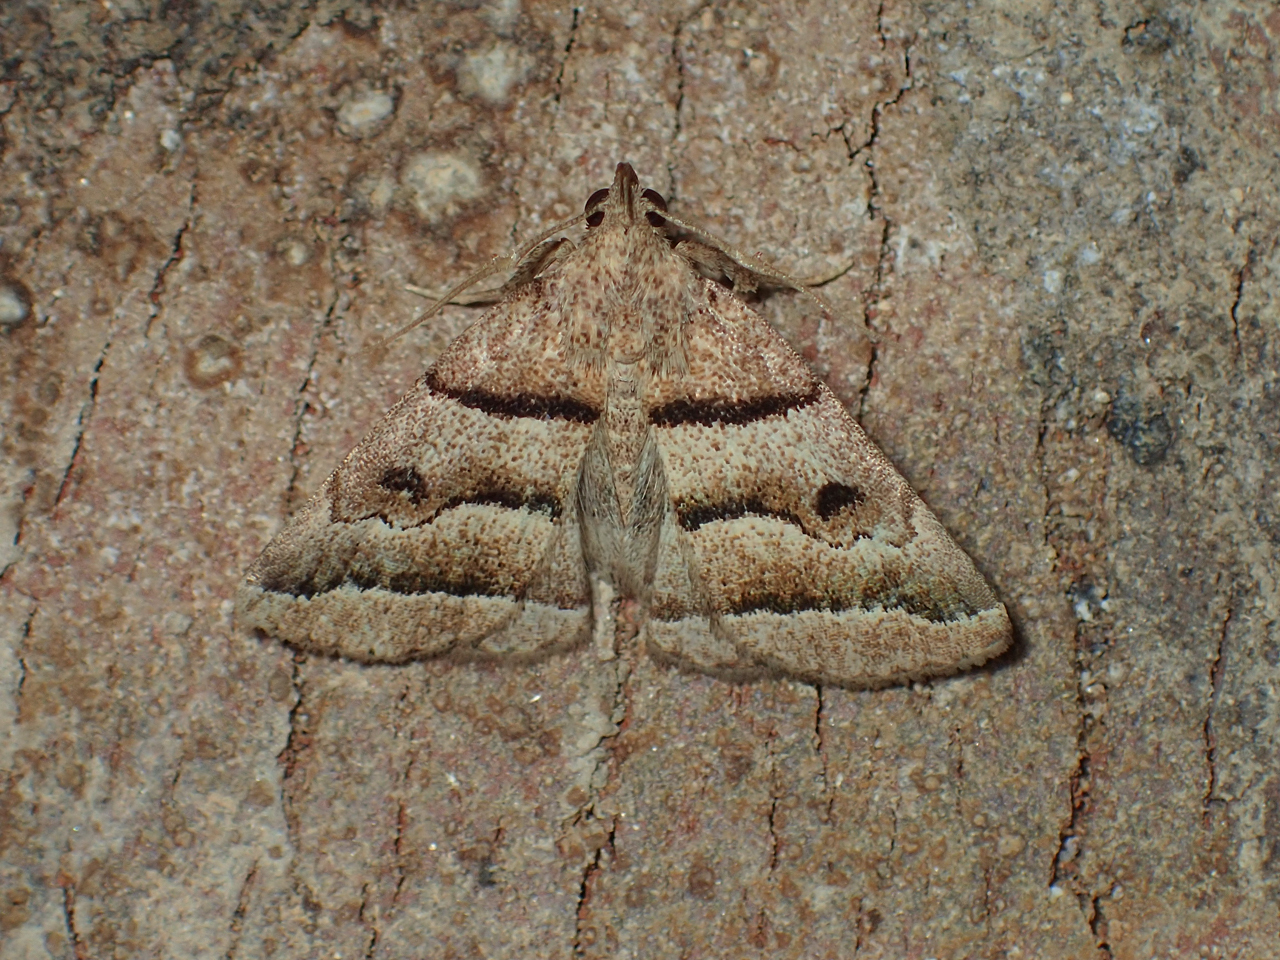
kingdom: Animalia
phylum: Arthropoda
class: Insecta
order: Lepidoptera
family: Erebidae
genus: Zanclognatha
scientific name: Zanclognatha atrilineella
